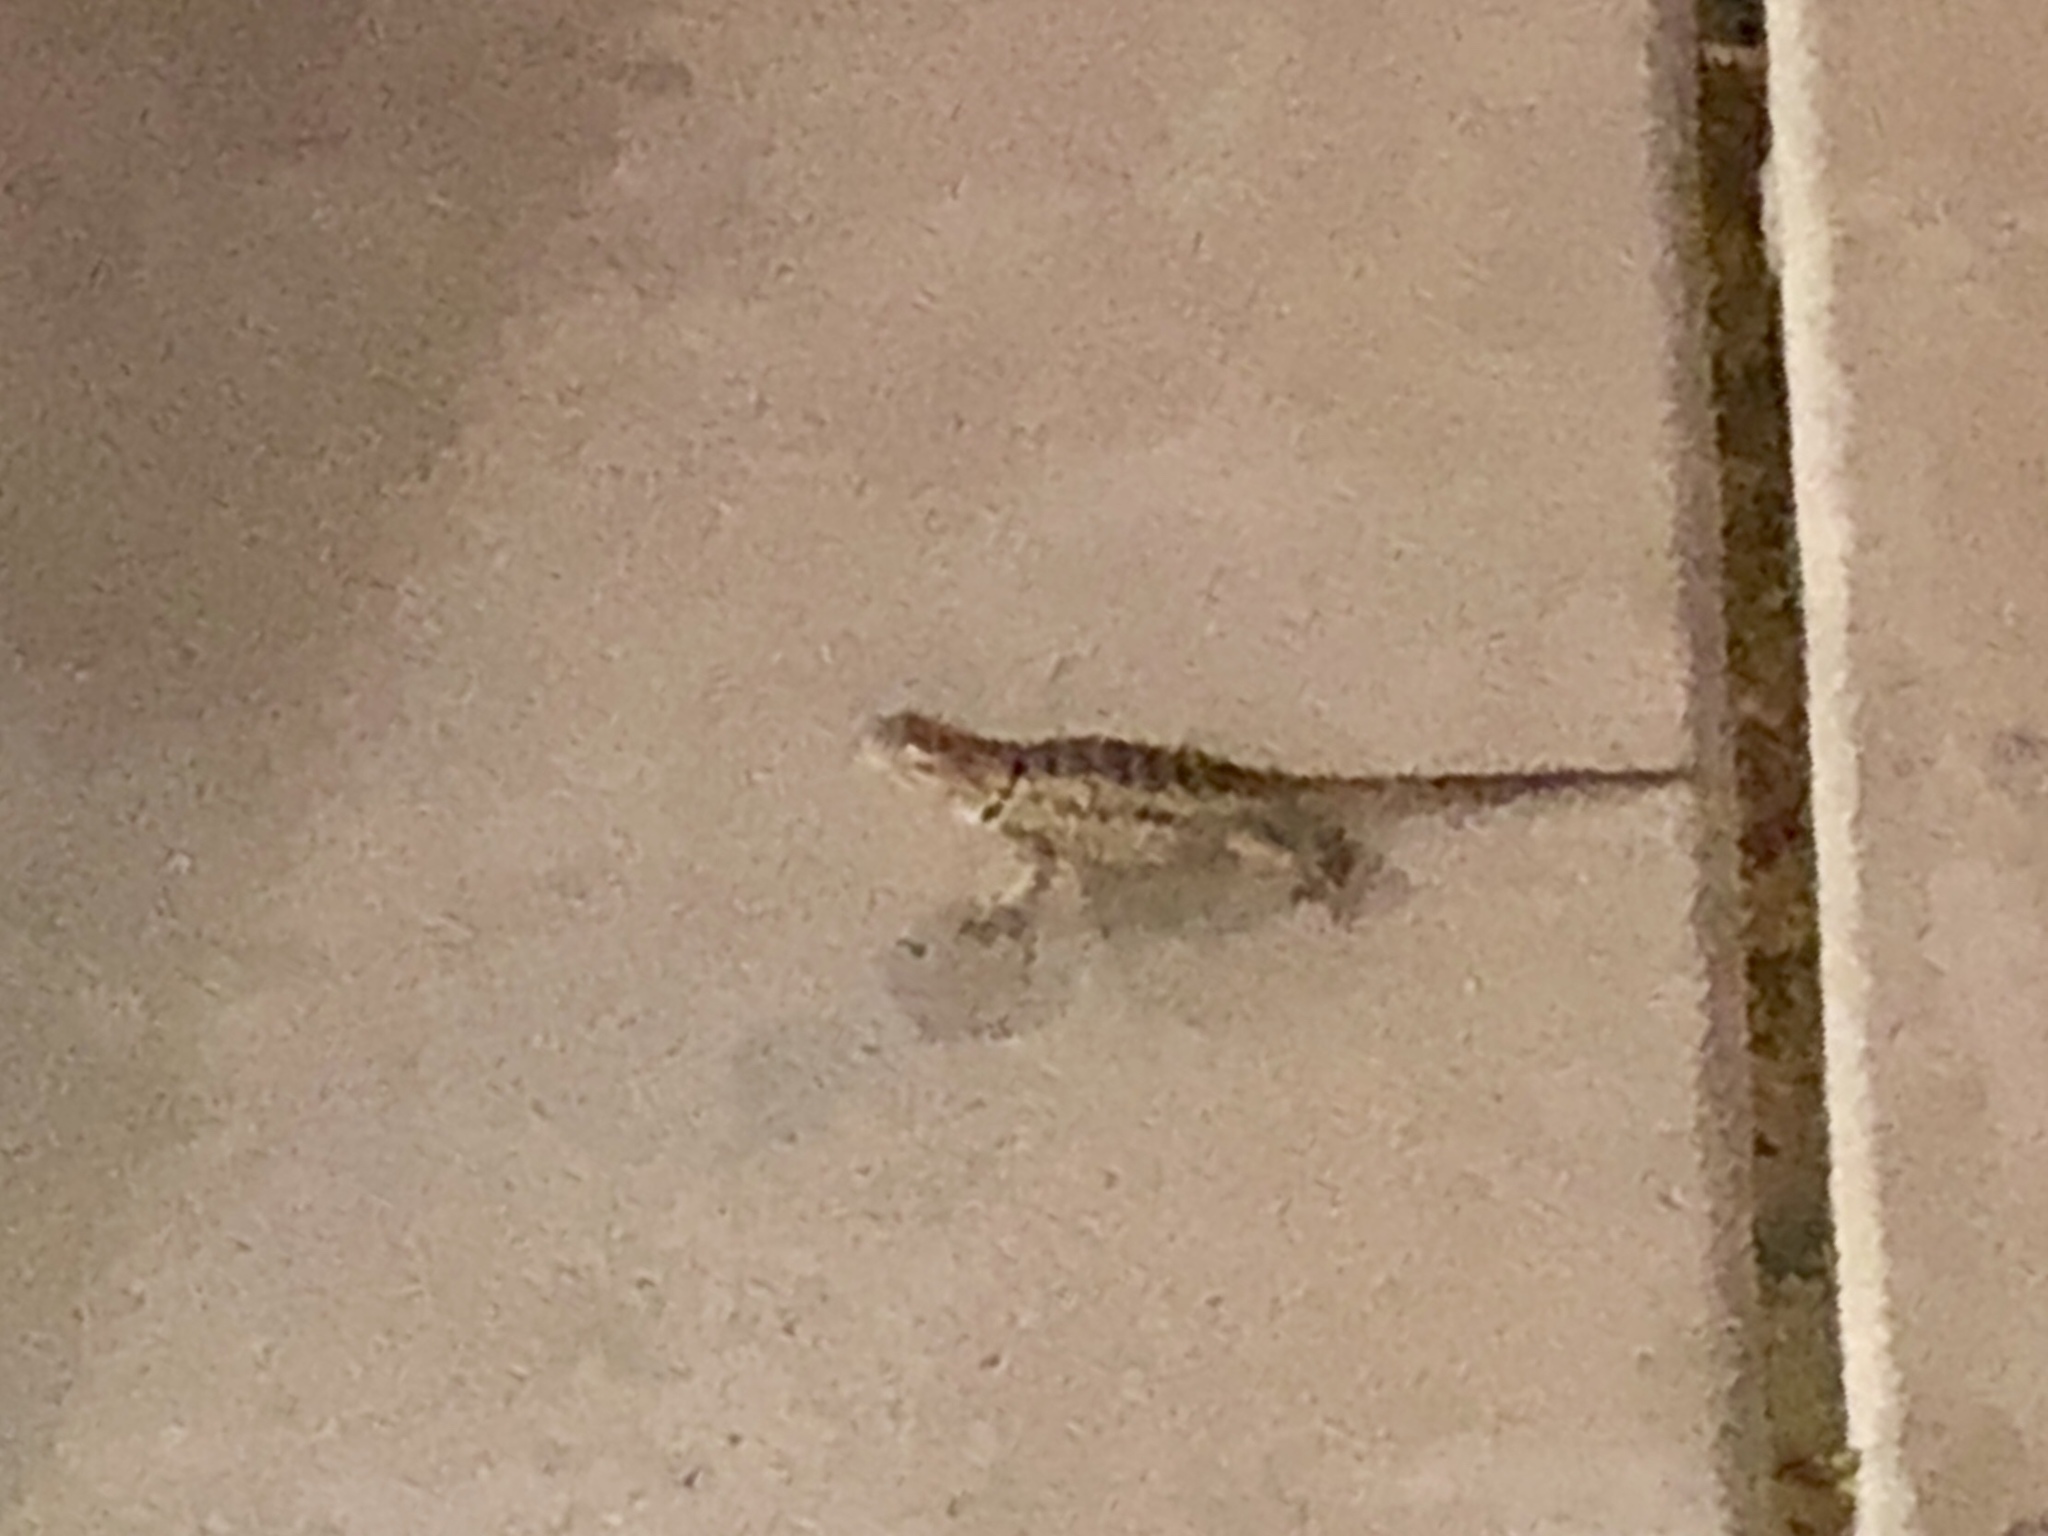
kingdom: Animalia
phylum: Chordata
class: Squamata
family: Phrynosomatidae
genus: Sceloporus
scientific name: Sceloporus magister
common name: Desert spiny lizard
